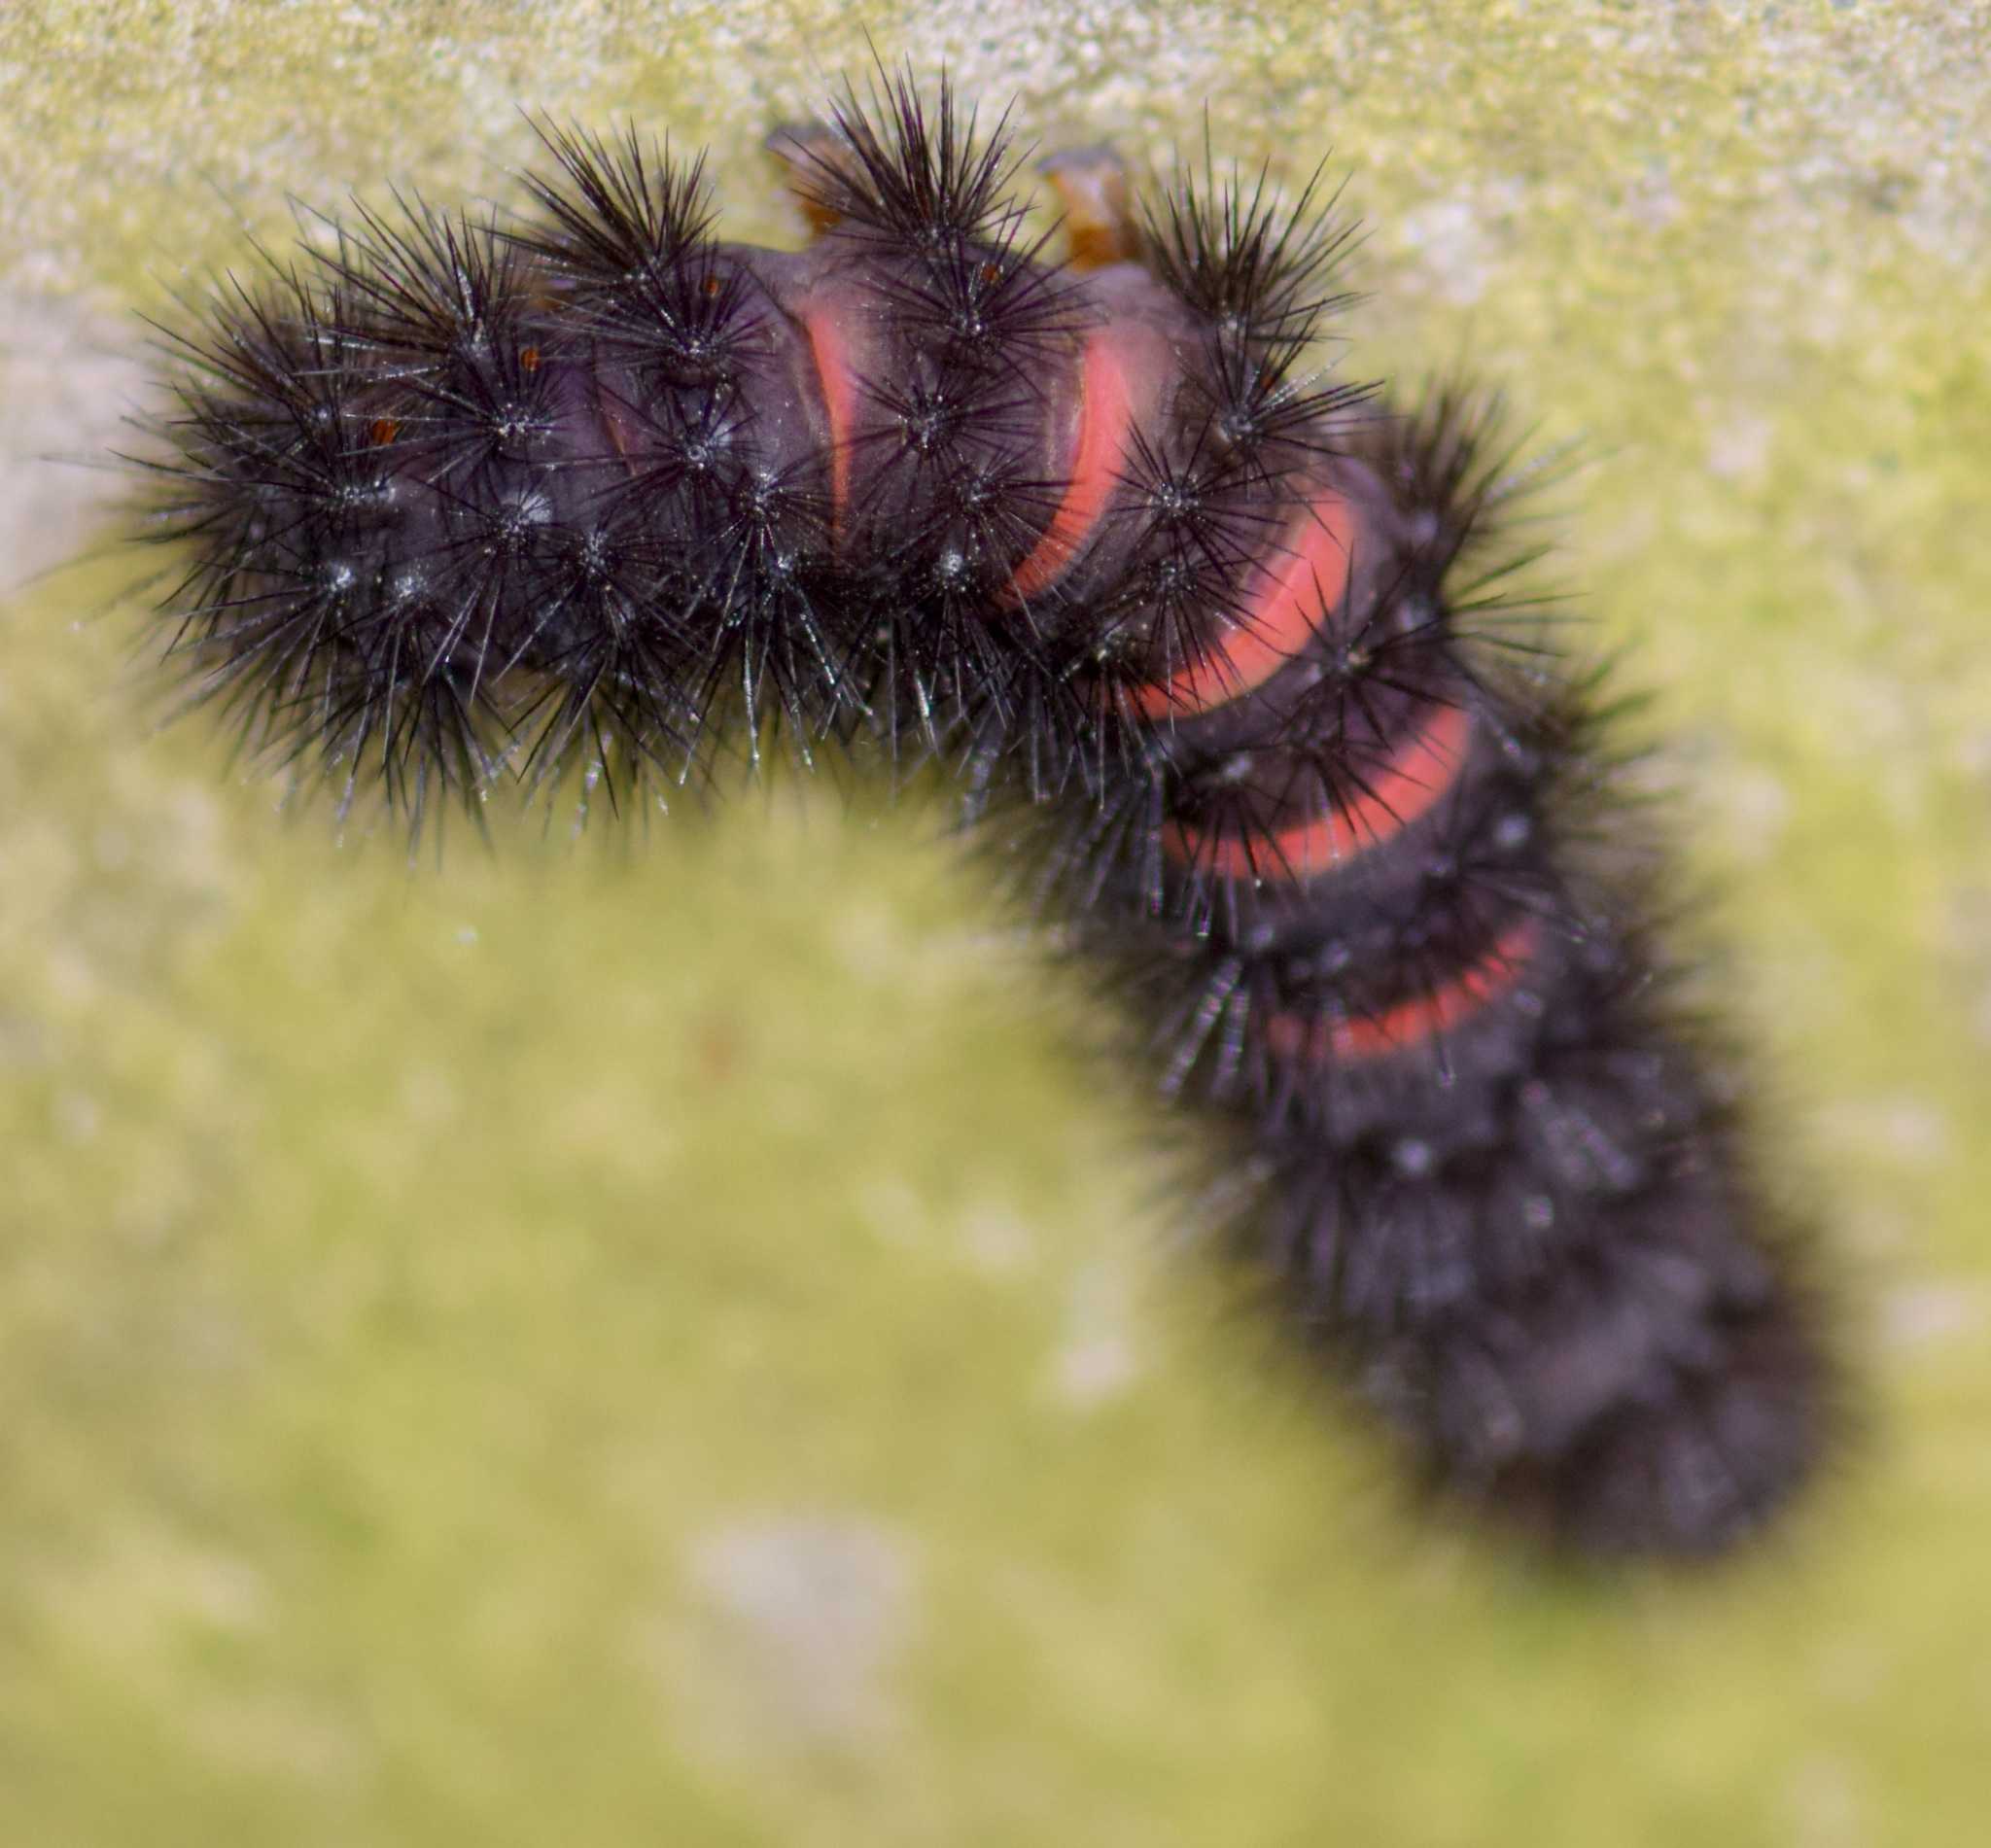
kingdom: Animalia
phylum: Arthropoda
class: Insecta
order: Lepidoptera
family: Erebidae
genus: Hypercompe
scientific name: Hypercompe scribonia
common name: Giant leopard moth
